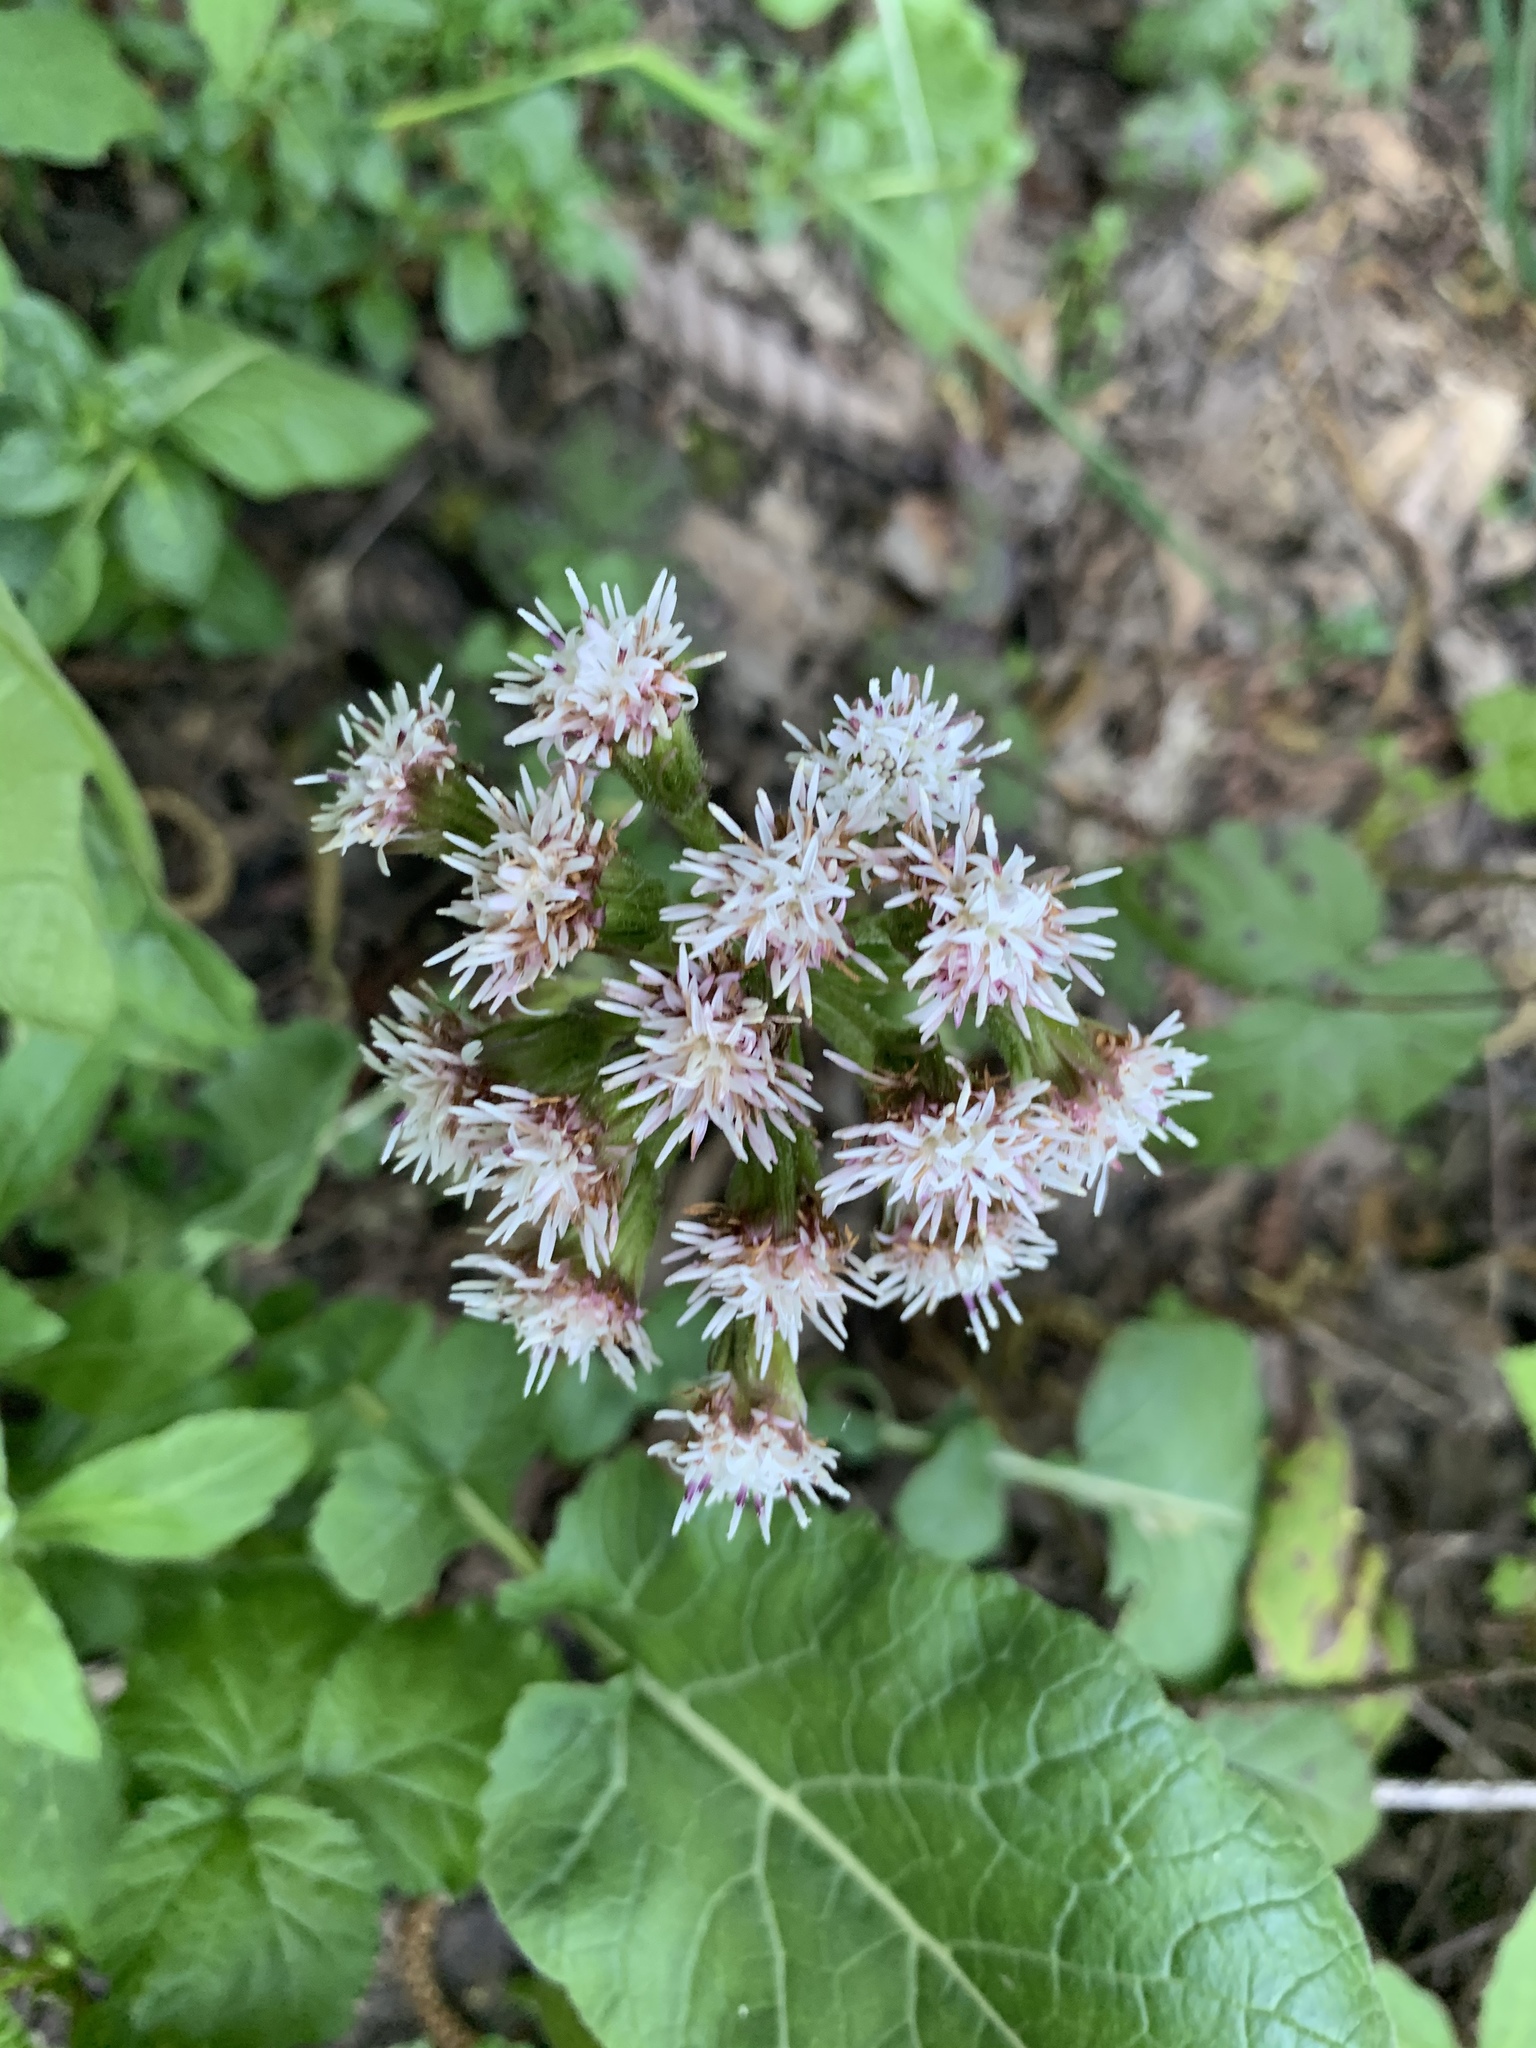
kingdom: Plantae
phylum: Tracheophyta
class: Magnoliopsida
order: Asterales
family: Asteraceae
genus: Petasites
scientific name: Petasites frigidus
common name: Arctic butterbur
